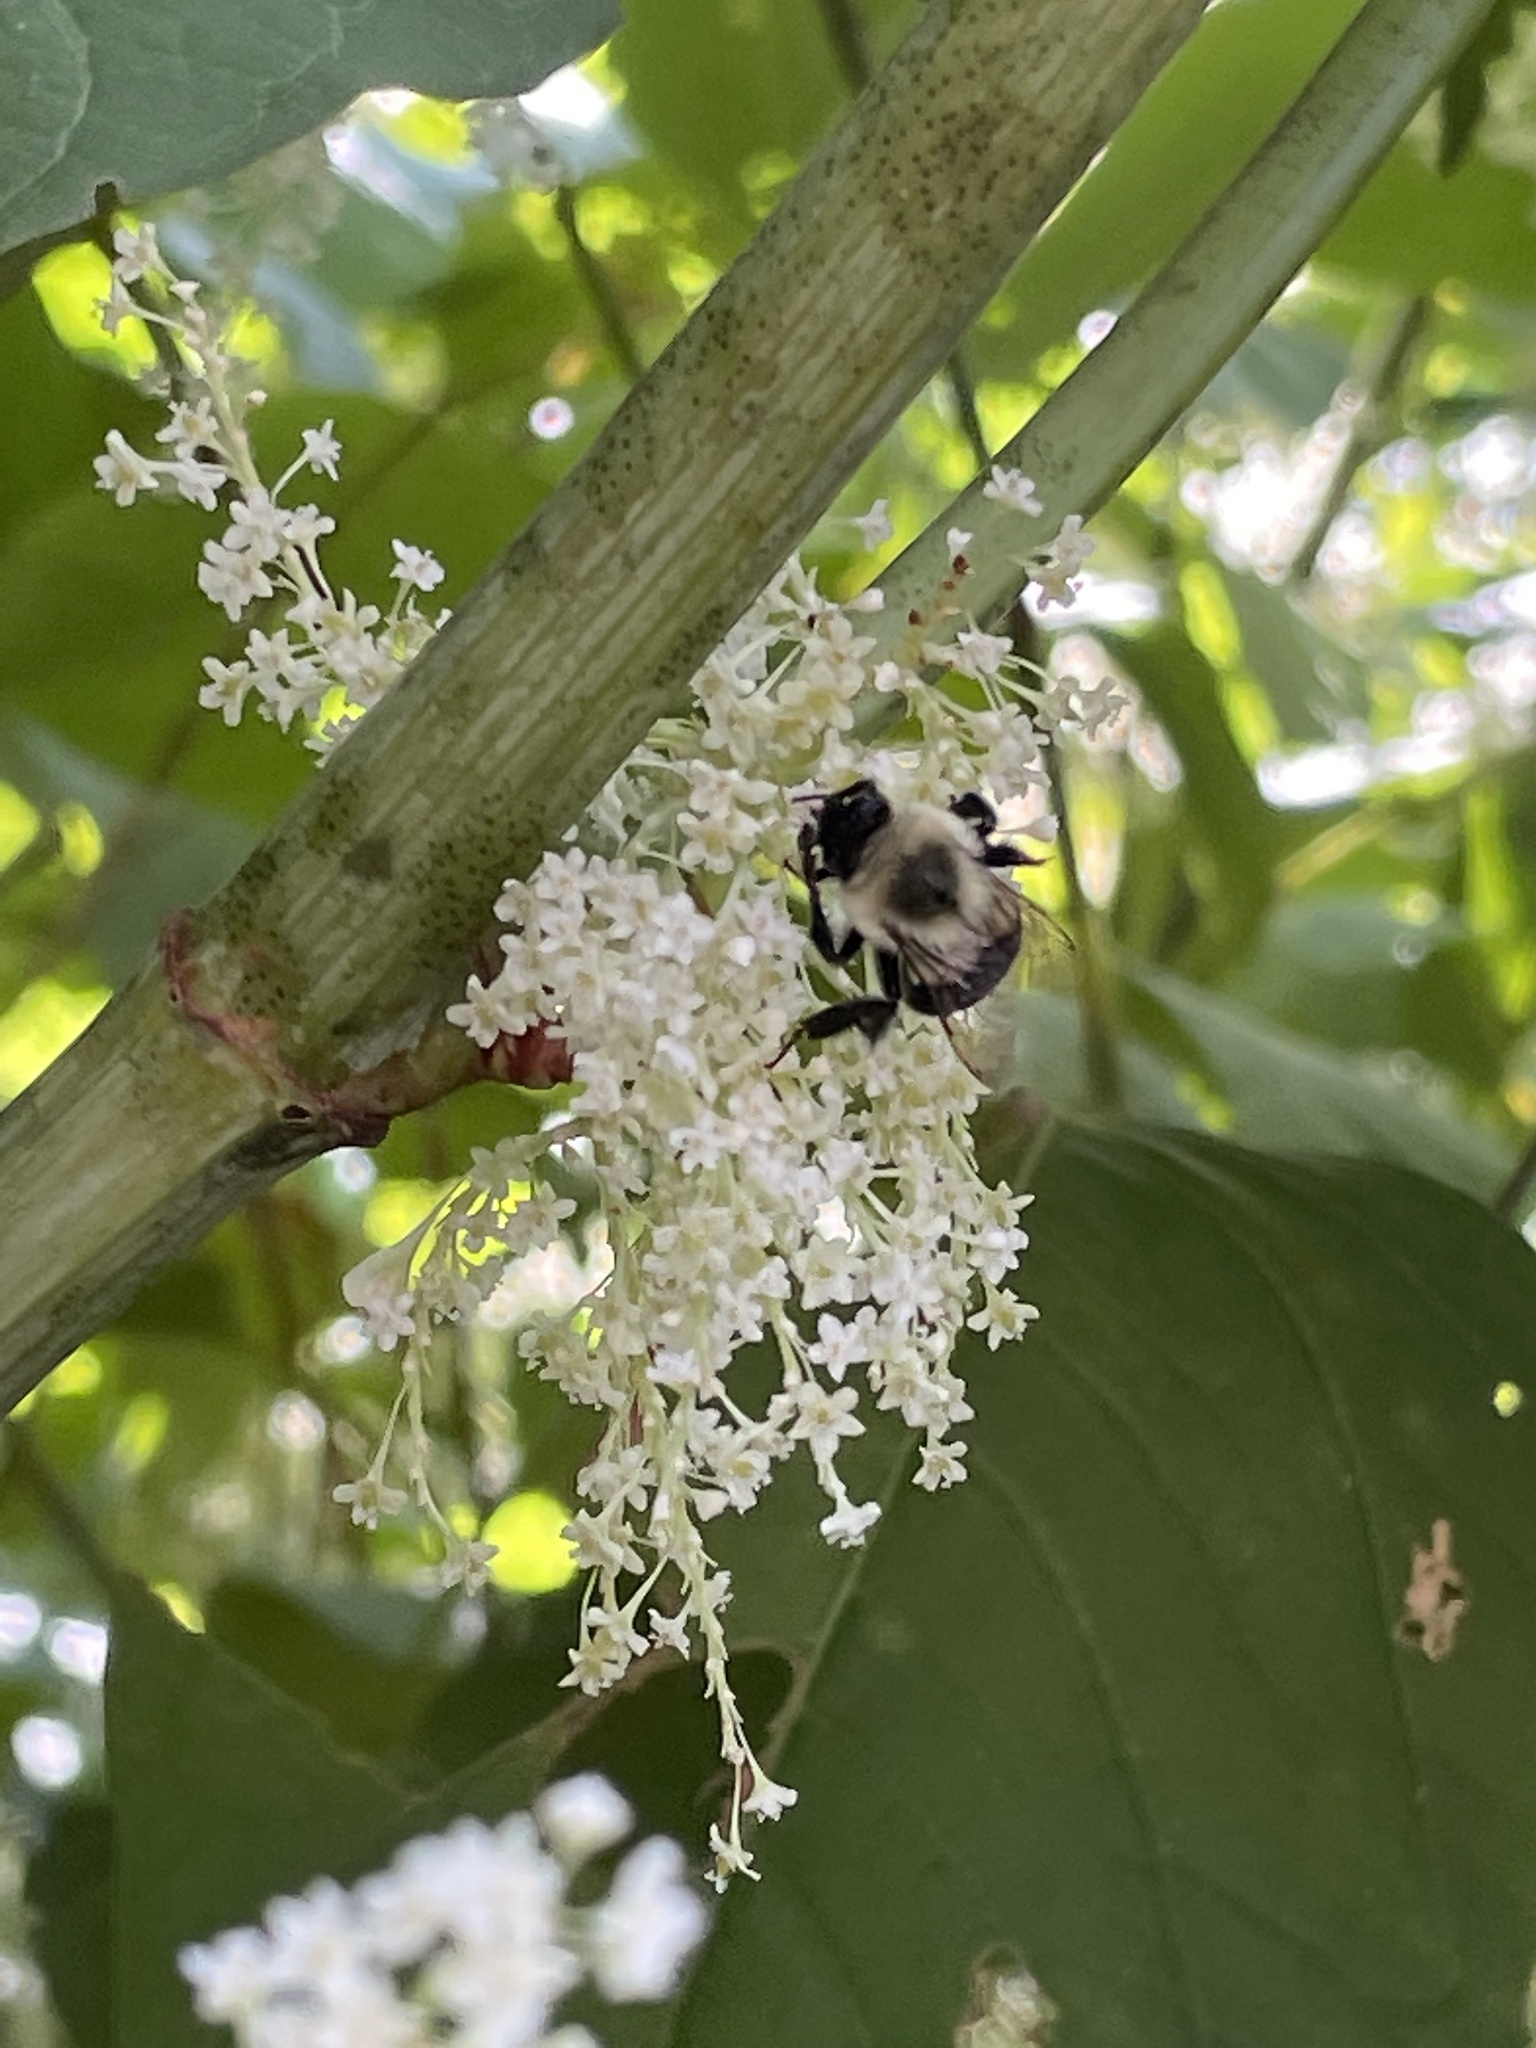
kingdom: Animalia
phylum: Arthropoda
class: Insecta
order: Hymenoptera
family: Apidae
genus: Bombus
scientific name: Bombus impatiens
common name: Common eastern bumble bee
